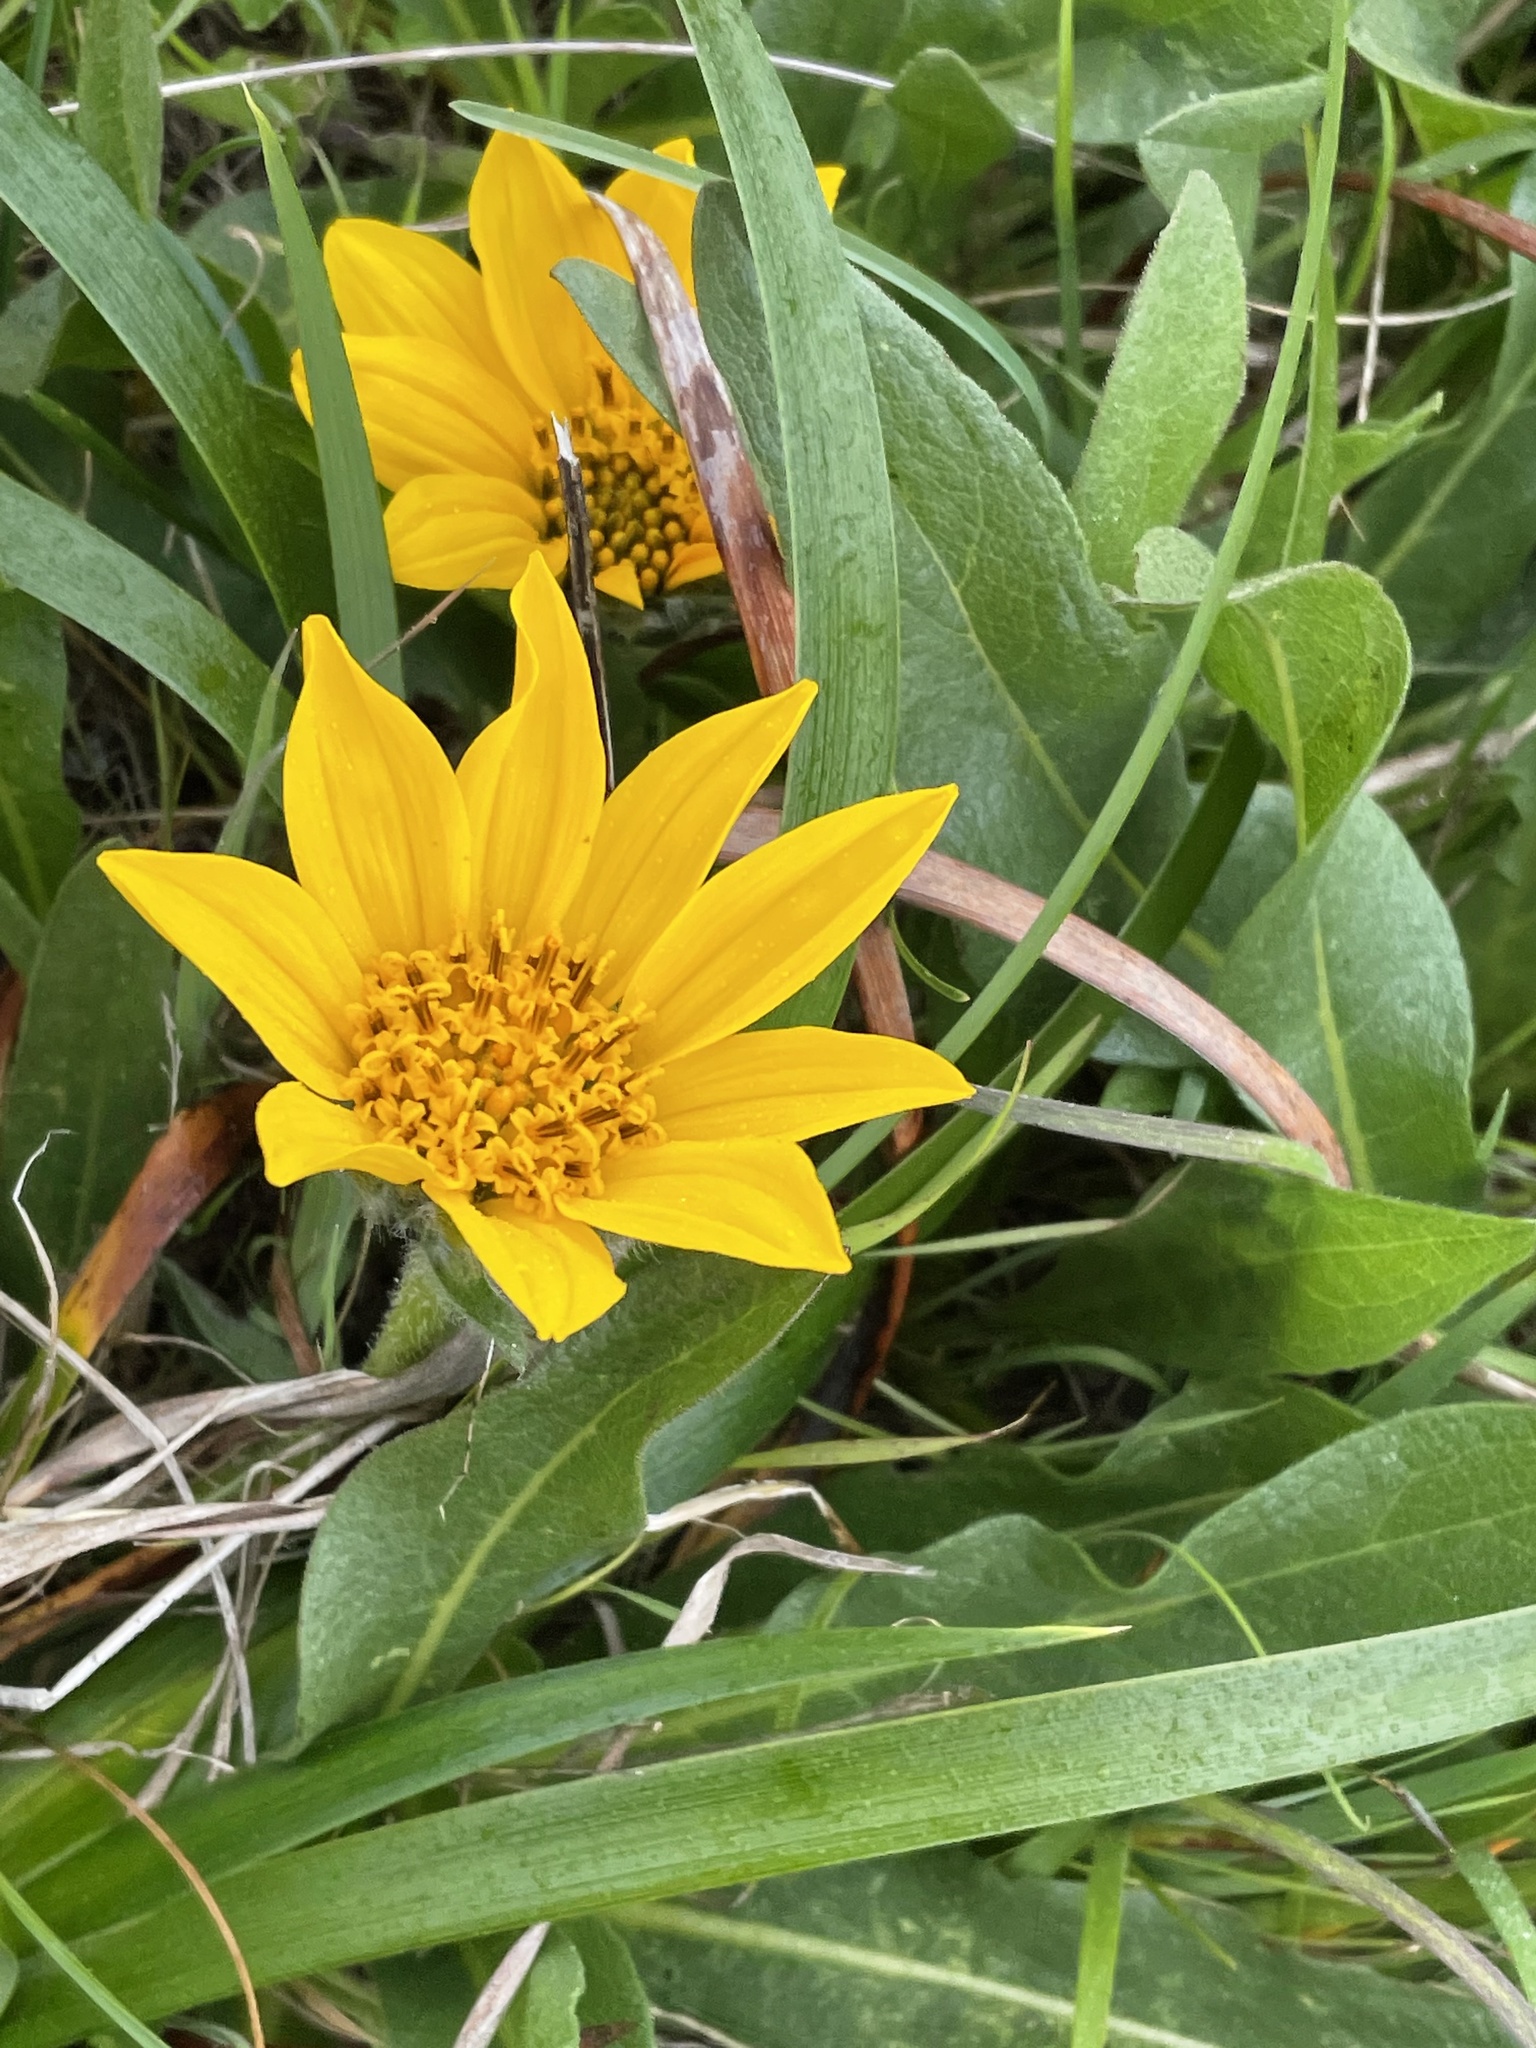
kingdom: Plantae
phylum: Tracheophyta
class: Magnoliopsida
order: Asterales
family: Asteraceae
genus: Wyethia
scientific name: Wyethia angustifolia
